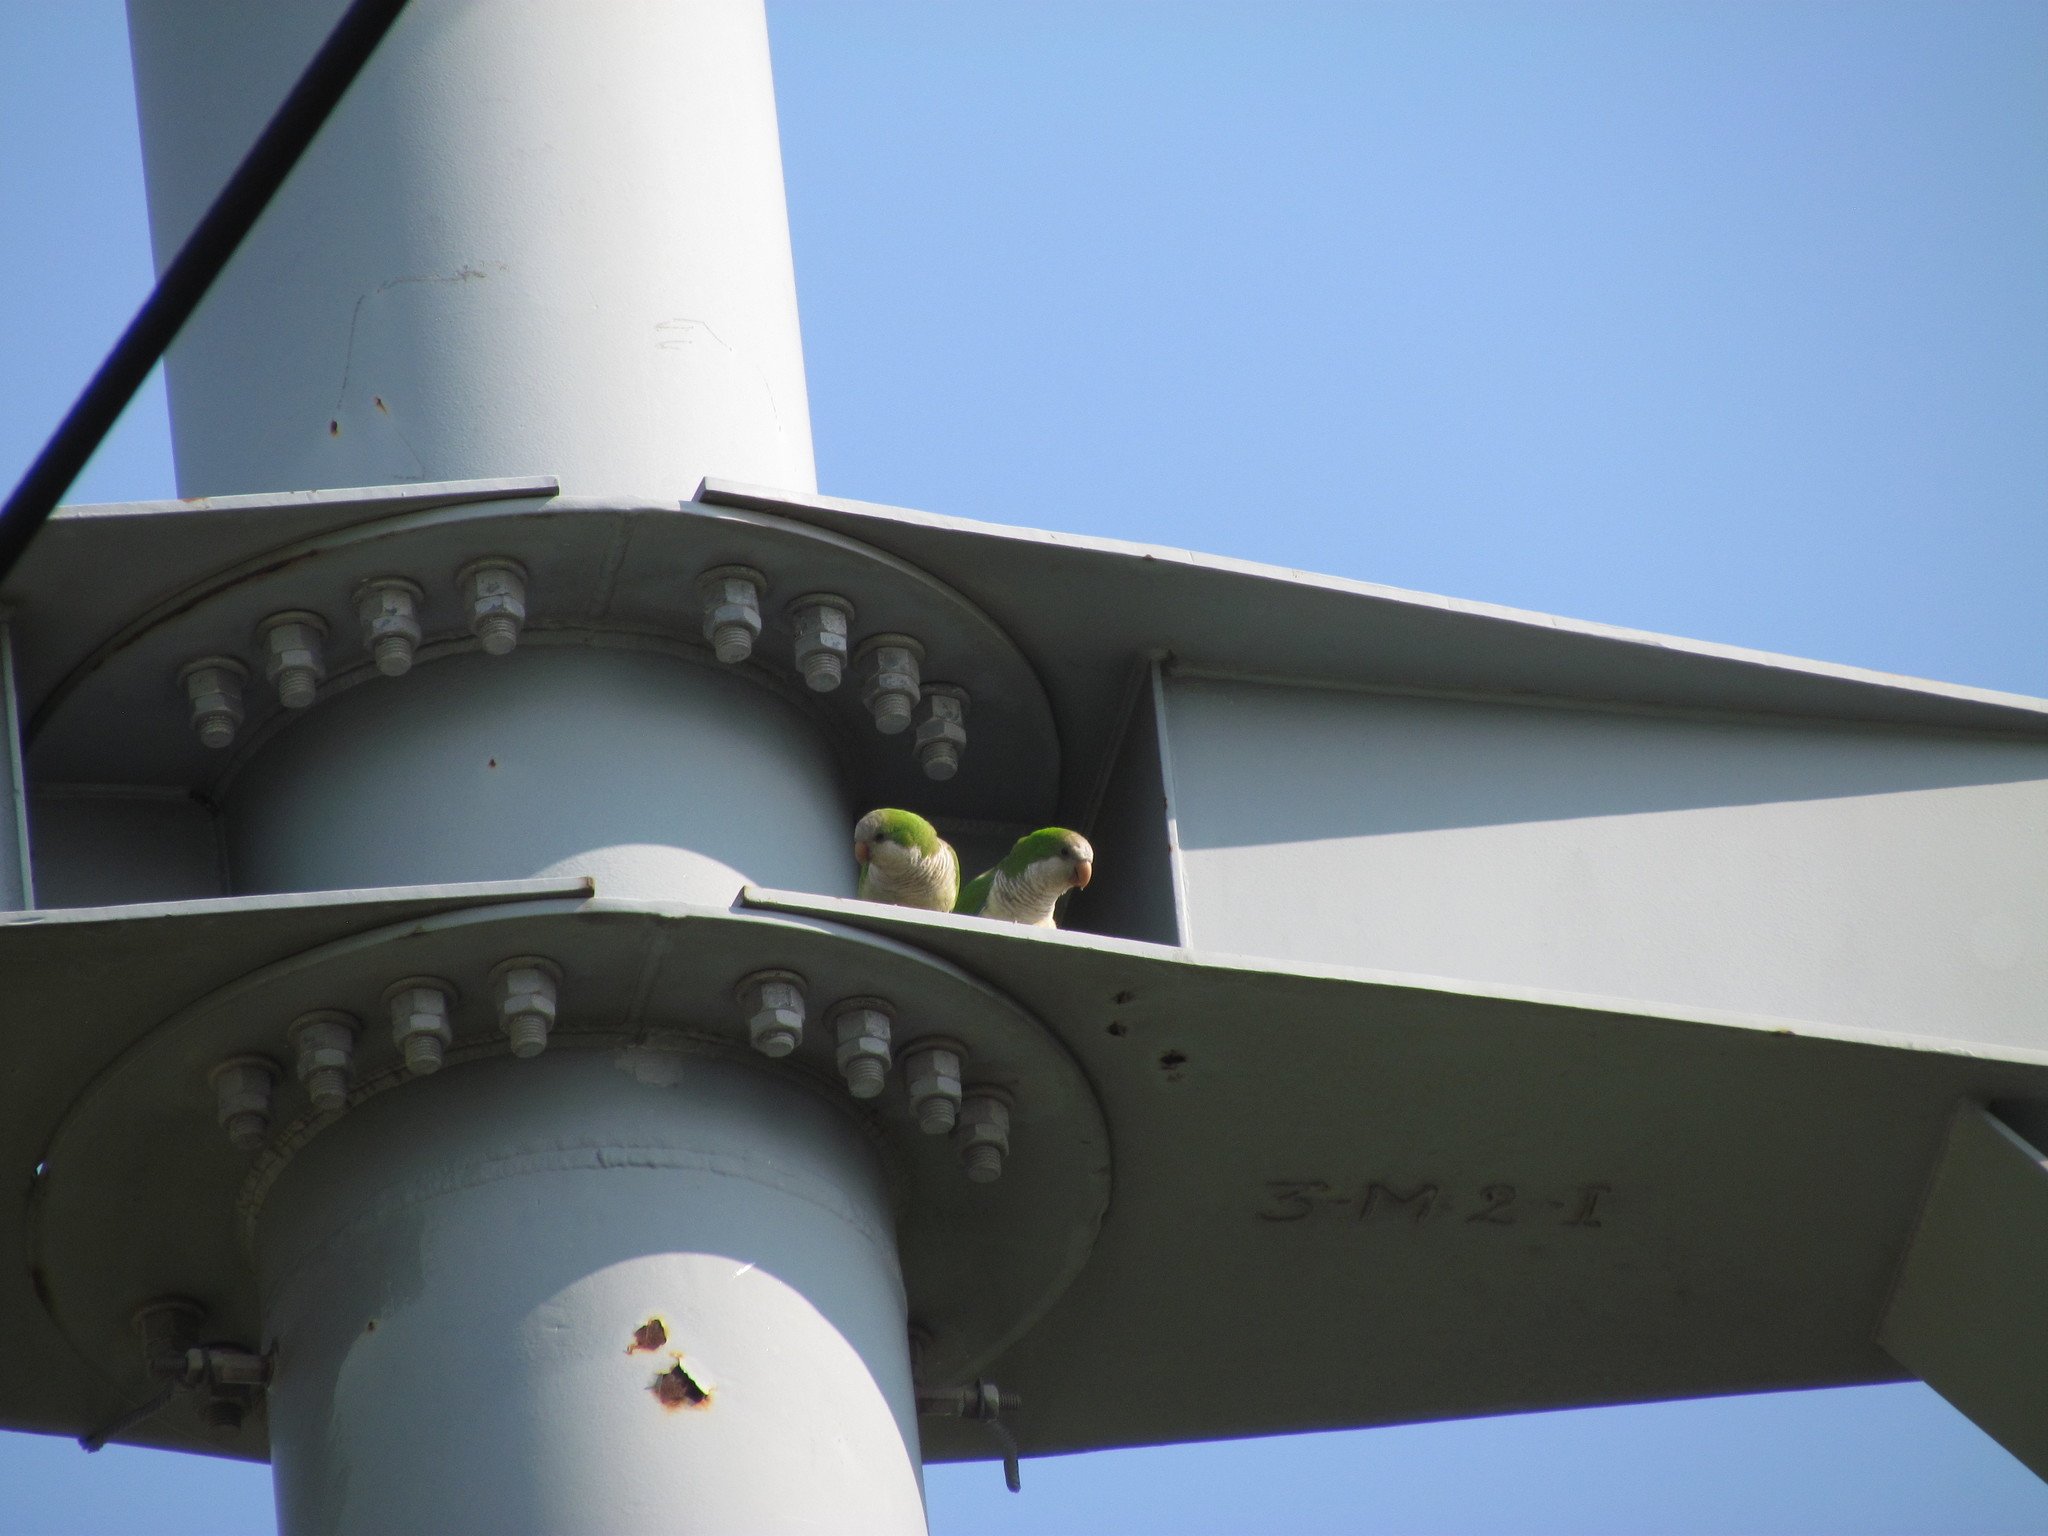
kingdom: Animalia
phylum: Chordata
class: Aves
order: Psittaciformes
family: Psittacidae
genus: Myiopsitta
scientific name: Myiopsitta monachus
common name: Monk parakeet
